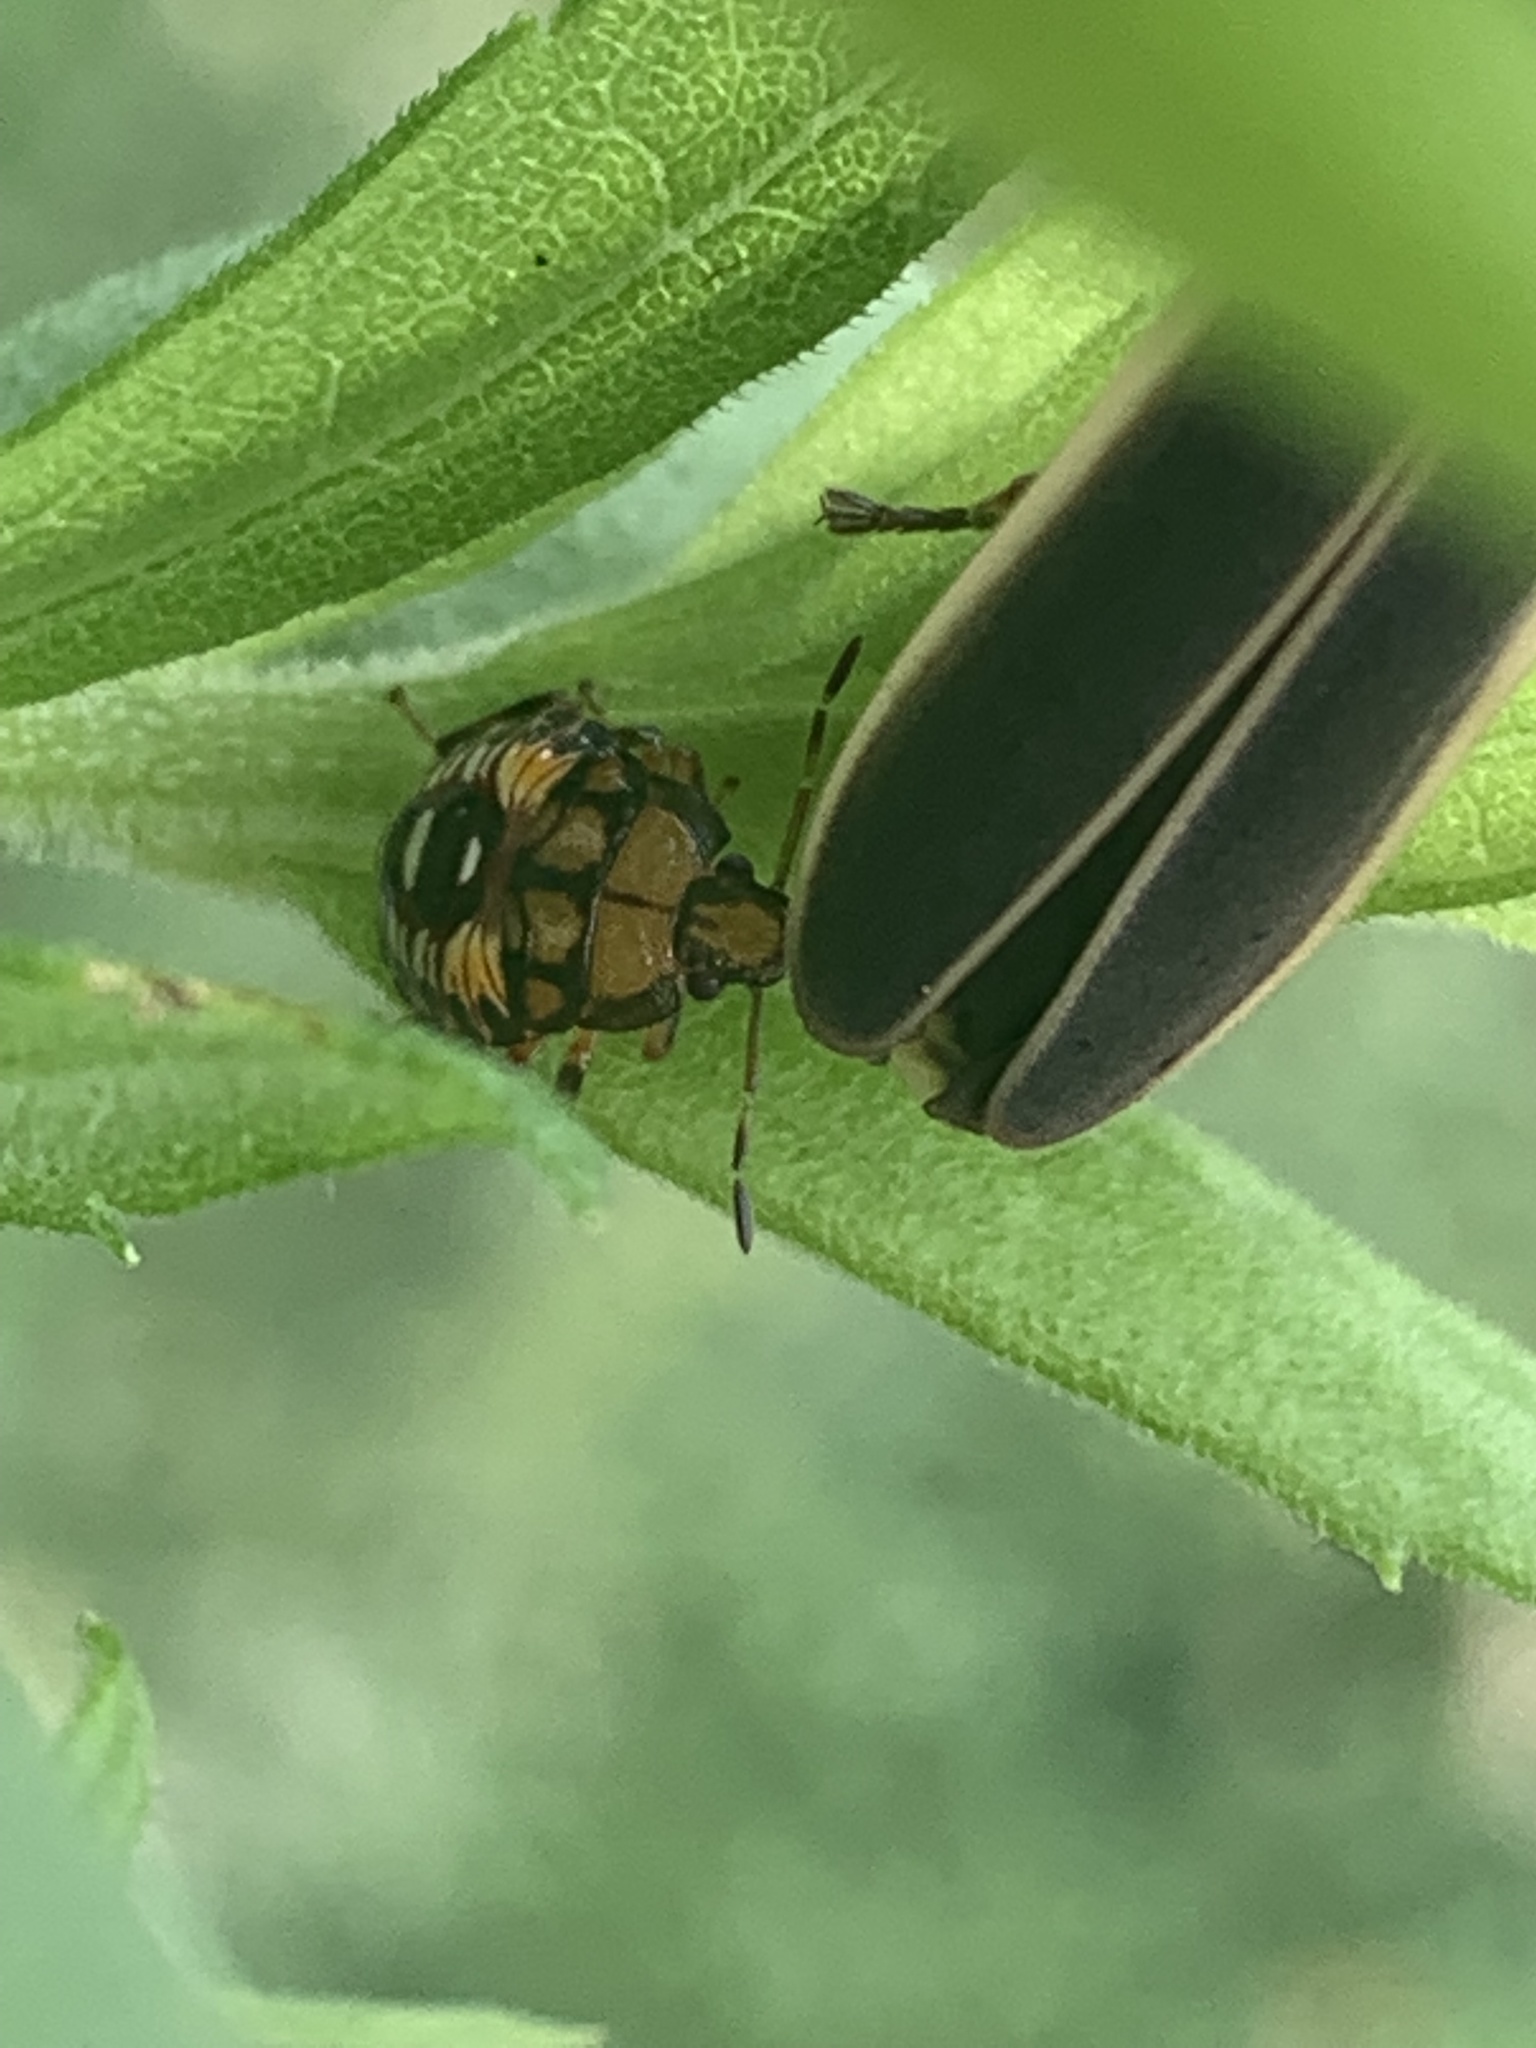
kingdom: Animalia
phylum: Arthropoda
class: Insecta
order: Hemiptera
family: Pentatomidae
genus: Podisus
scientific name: Podisus
